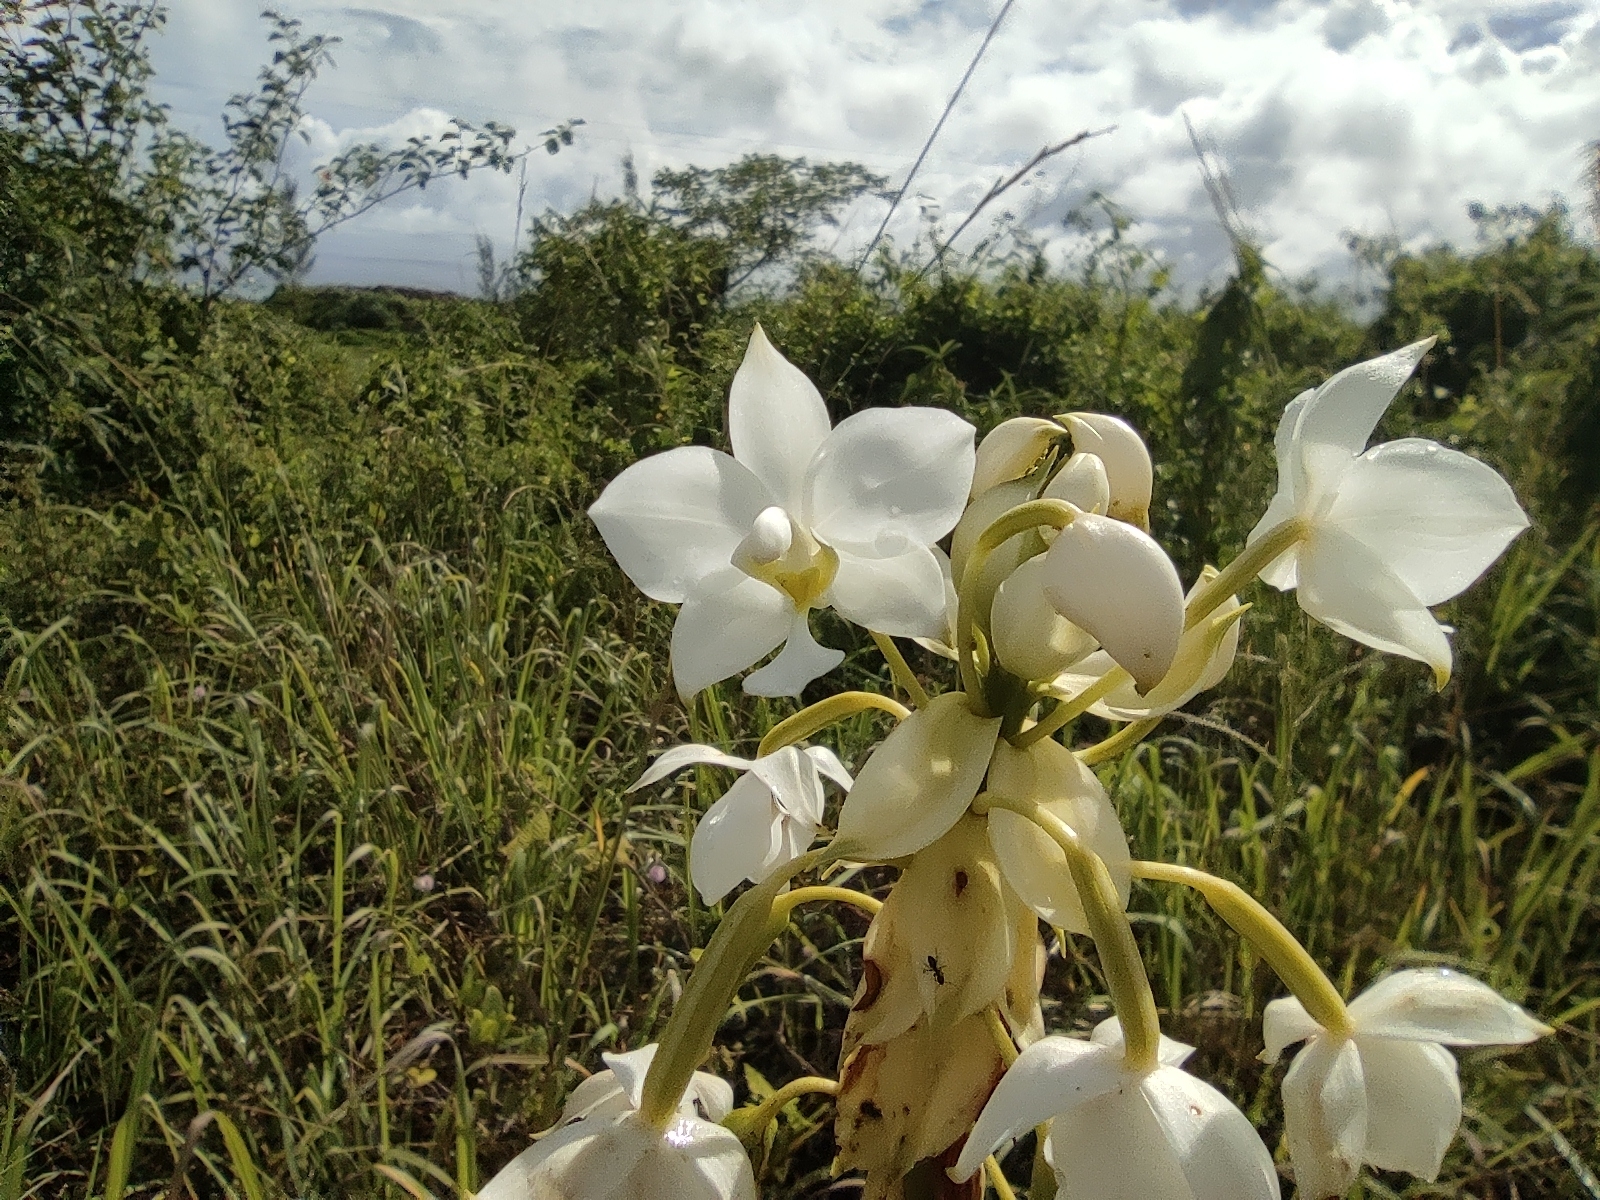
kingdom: Plantae
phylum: Tracheophyta
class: Liliopsida
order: Asparagales
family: Orchidaceae
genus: Spathoglottis
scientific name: Spathoglottis plicata
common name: Philippine ground orchid
